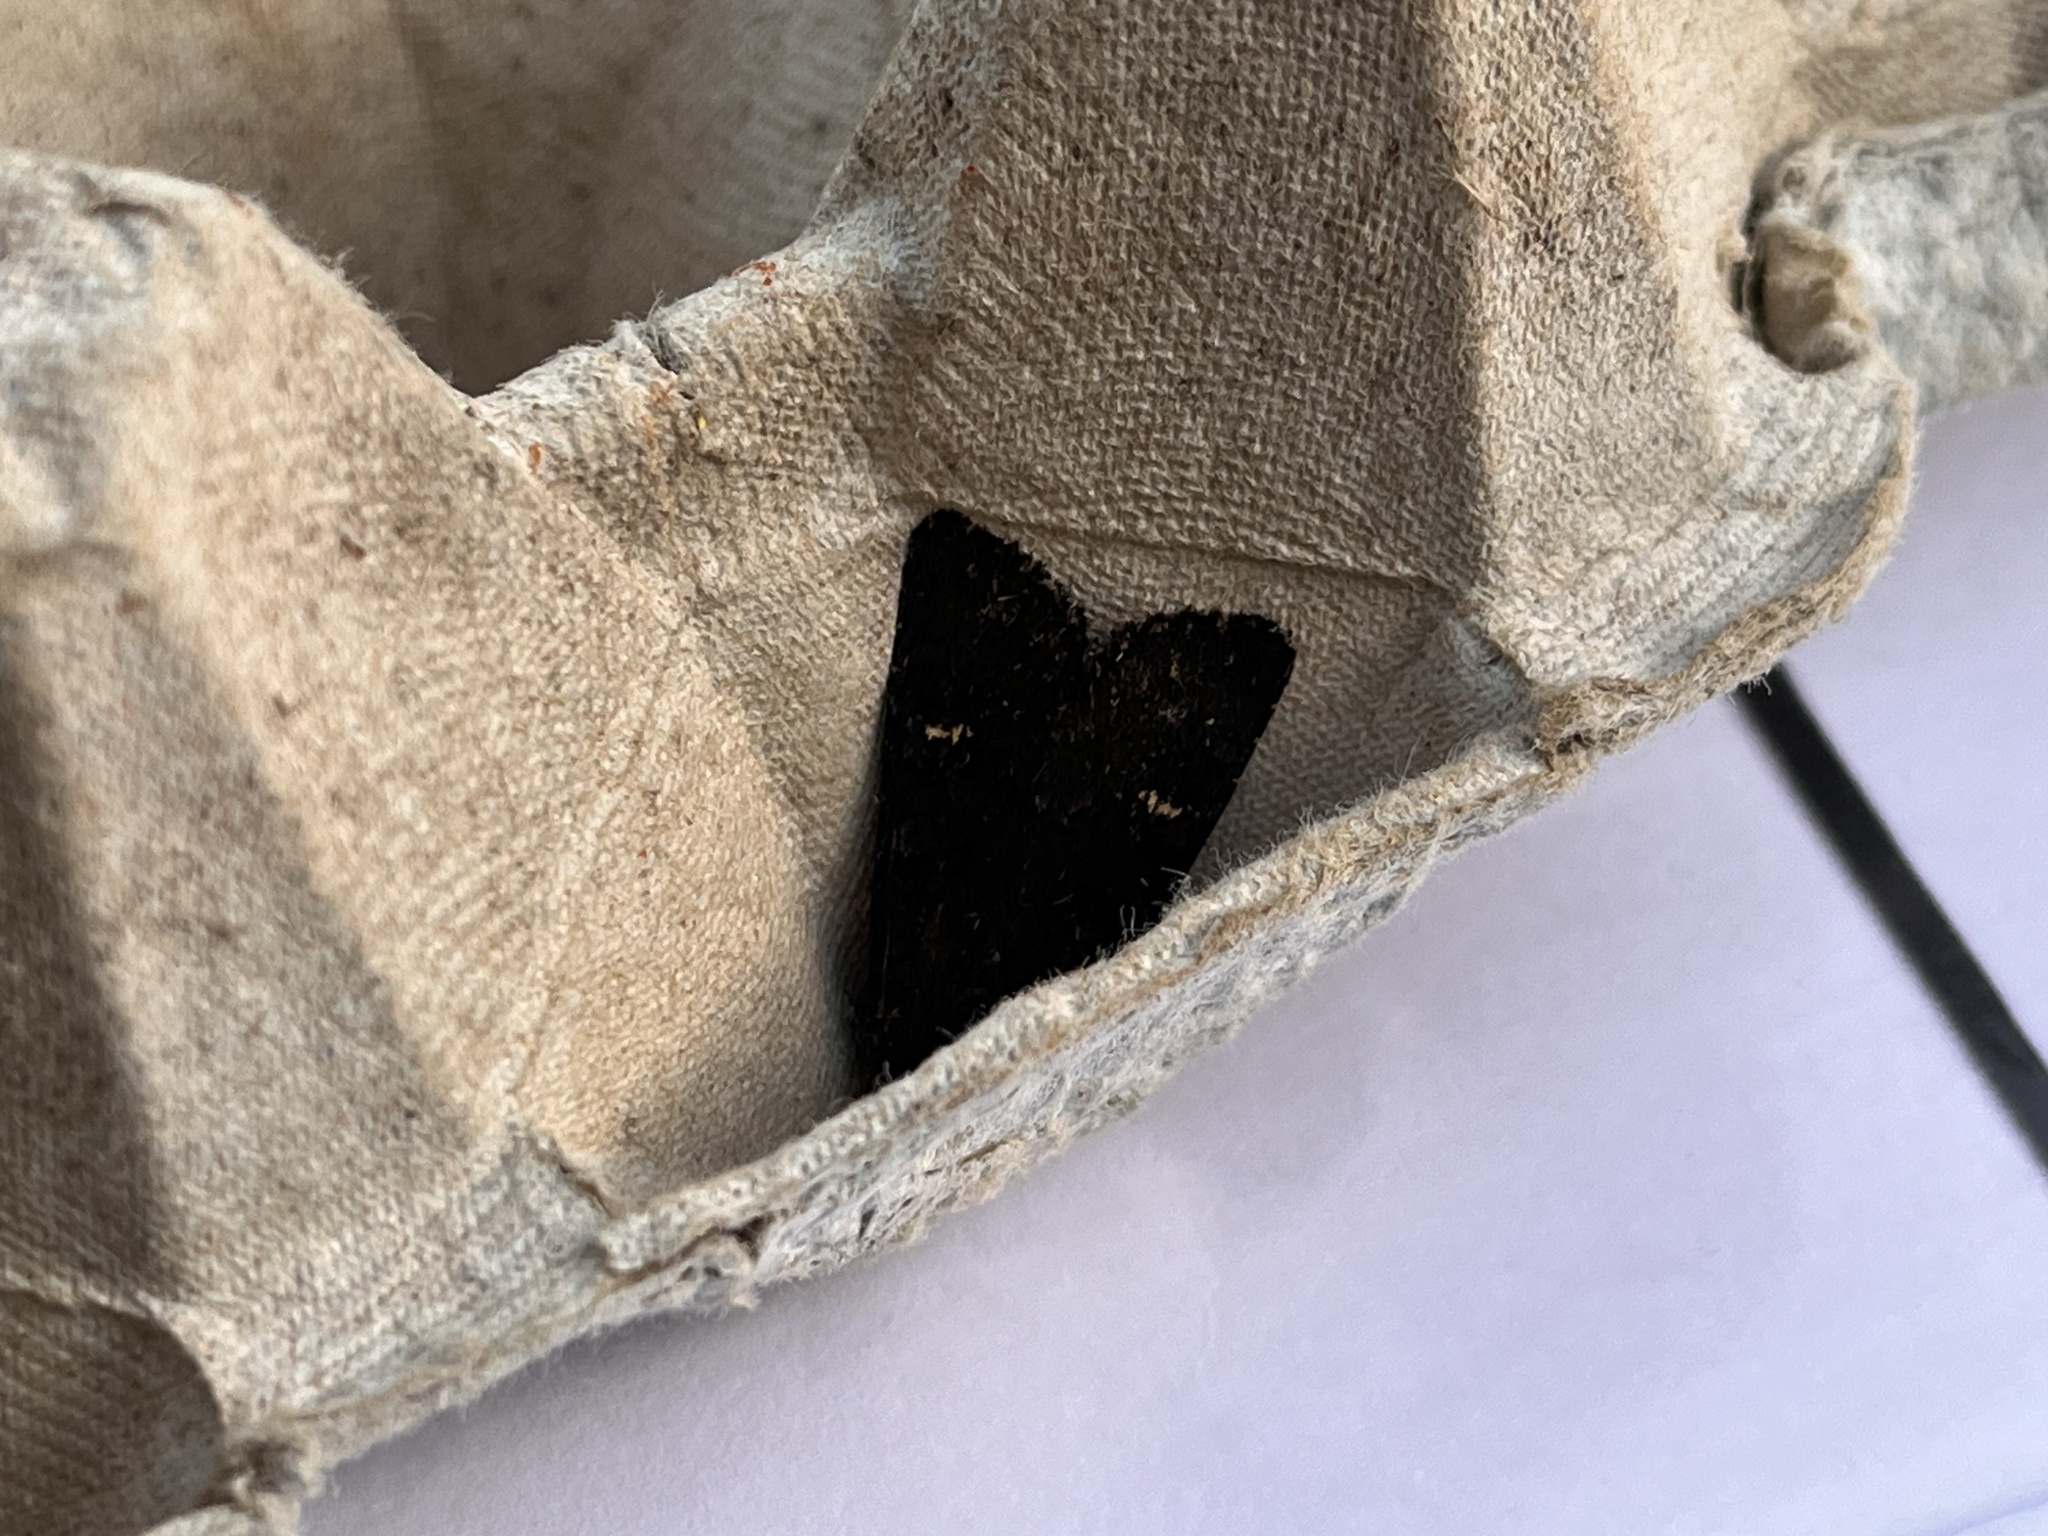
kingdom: Animalia
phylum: Arthropoda
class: Insecta
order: Lepidoptera
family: Noctuidae
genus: Aporophyla
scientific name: Aporophyla nigra
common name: Black rustic
